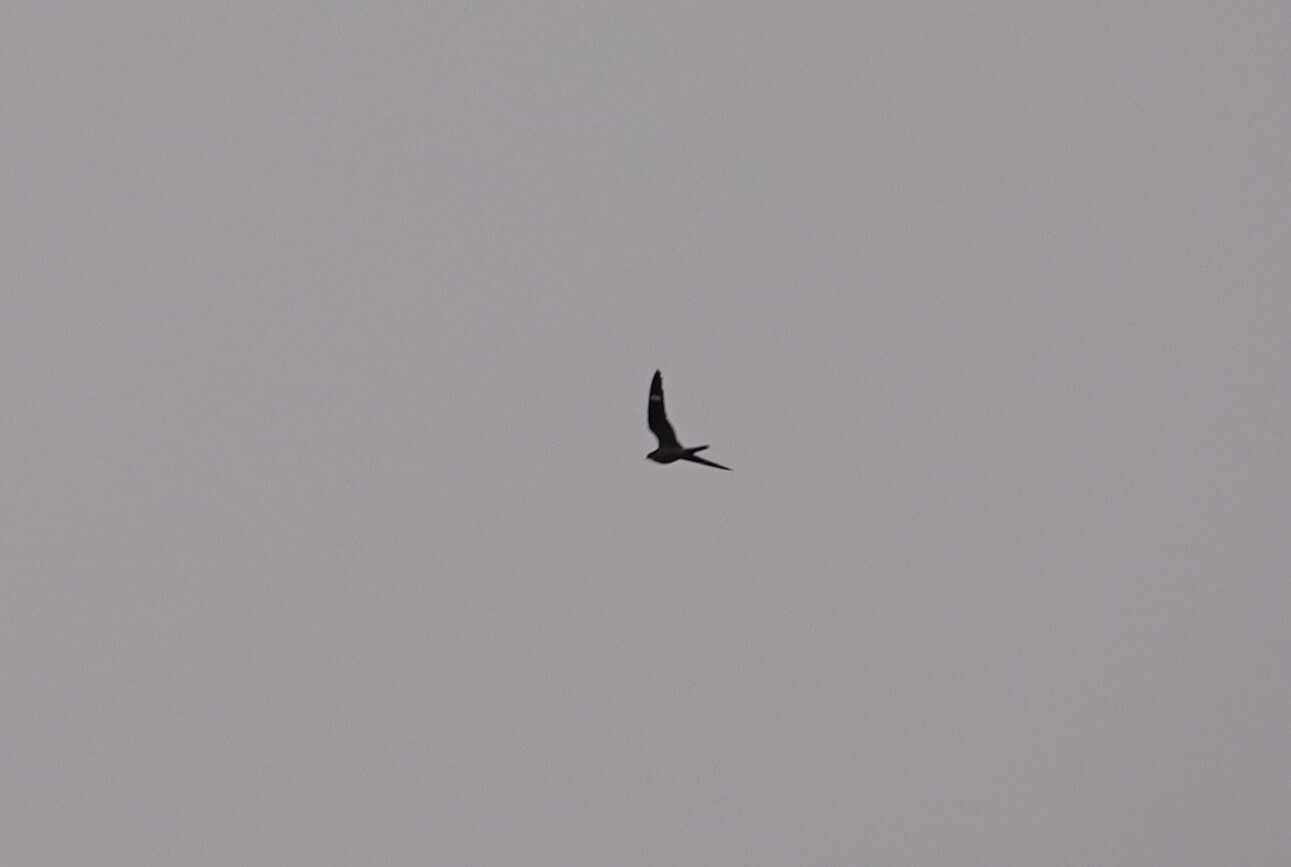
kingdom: Animalia
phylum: Chordata
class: Aves
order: Caprimulgiformes
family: Caprimulgidae
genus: Chordeiles
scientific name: Chordeiles minor
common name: Common nighthawk
